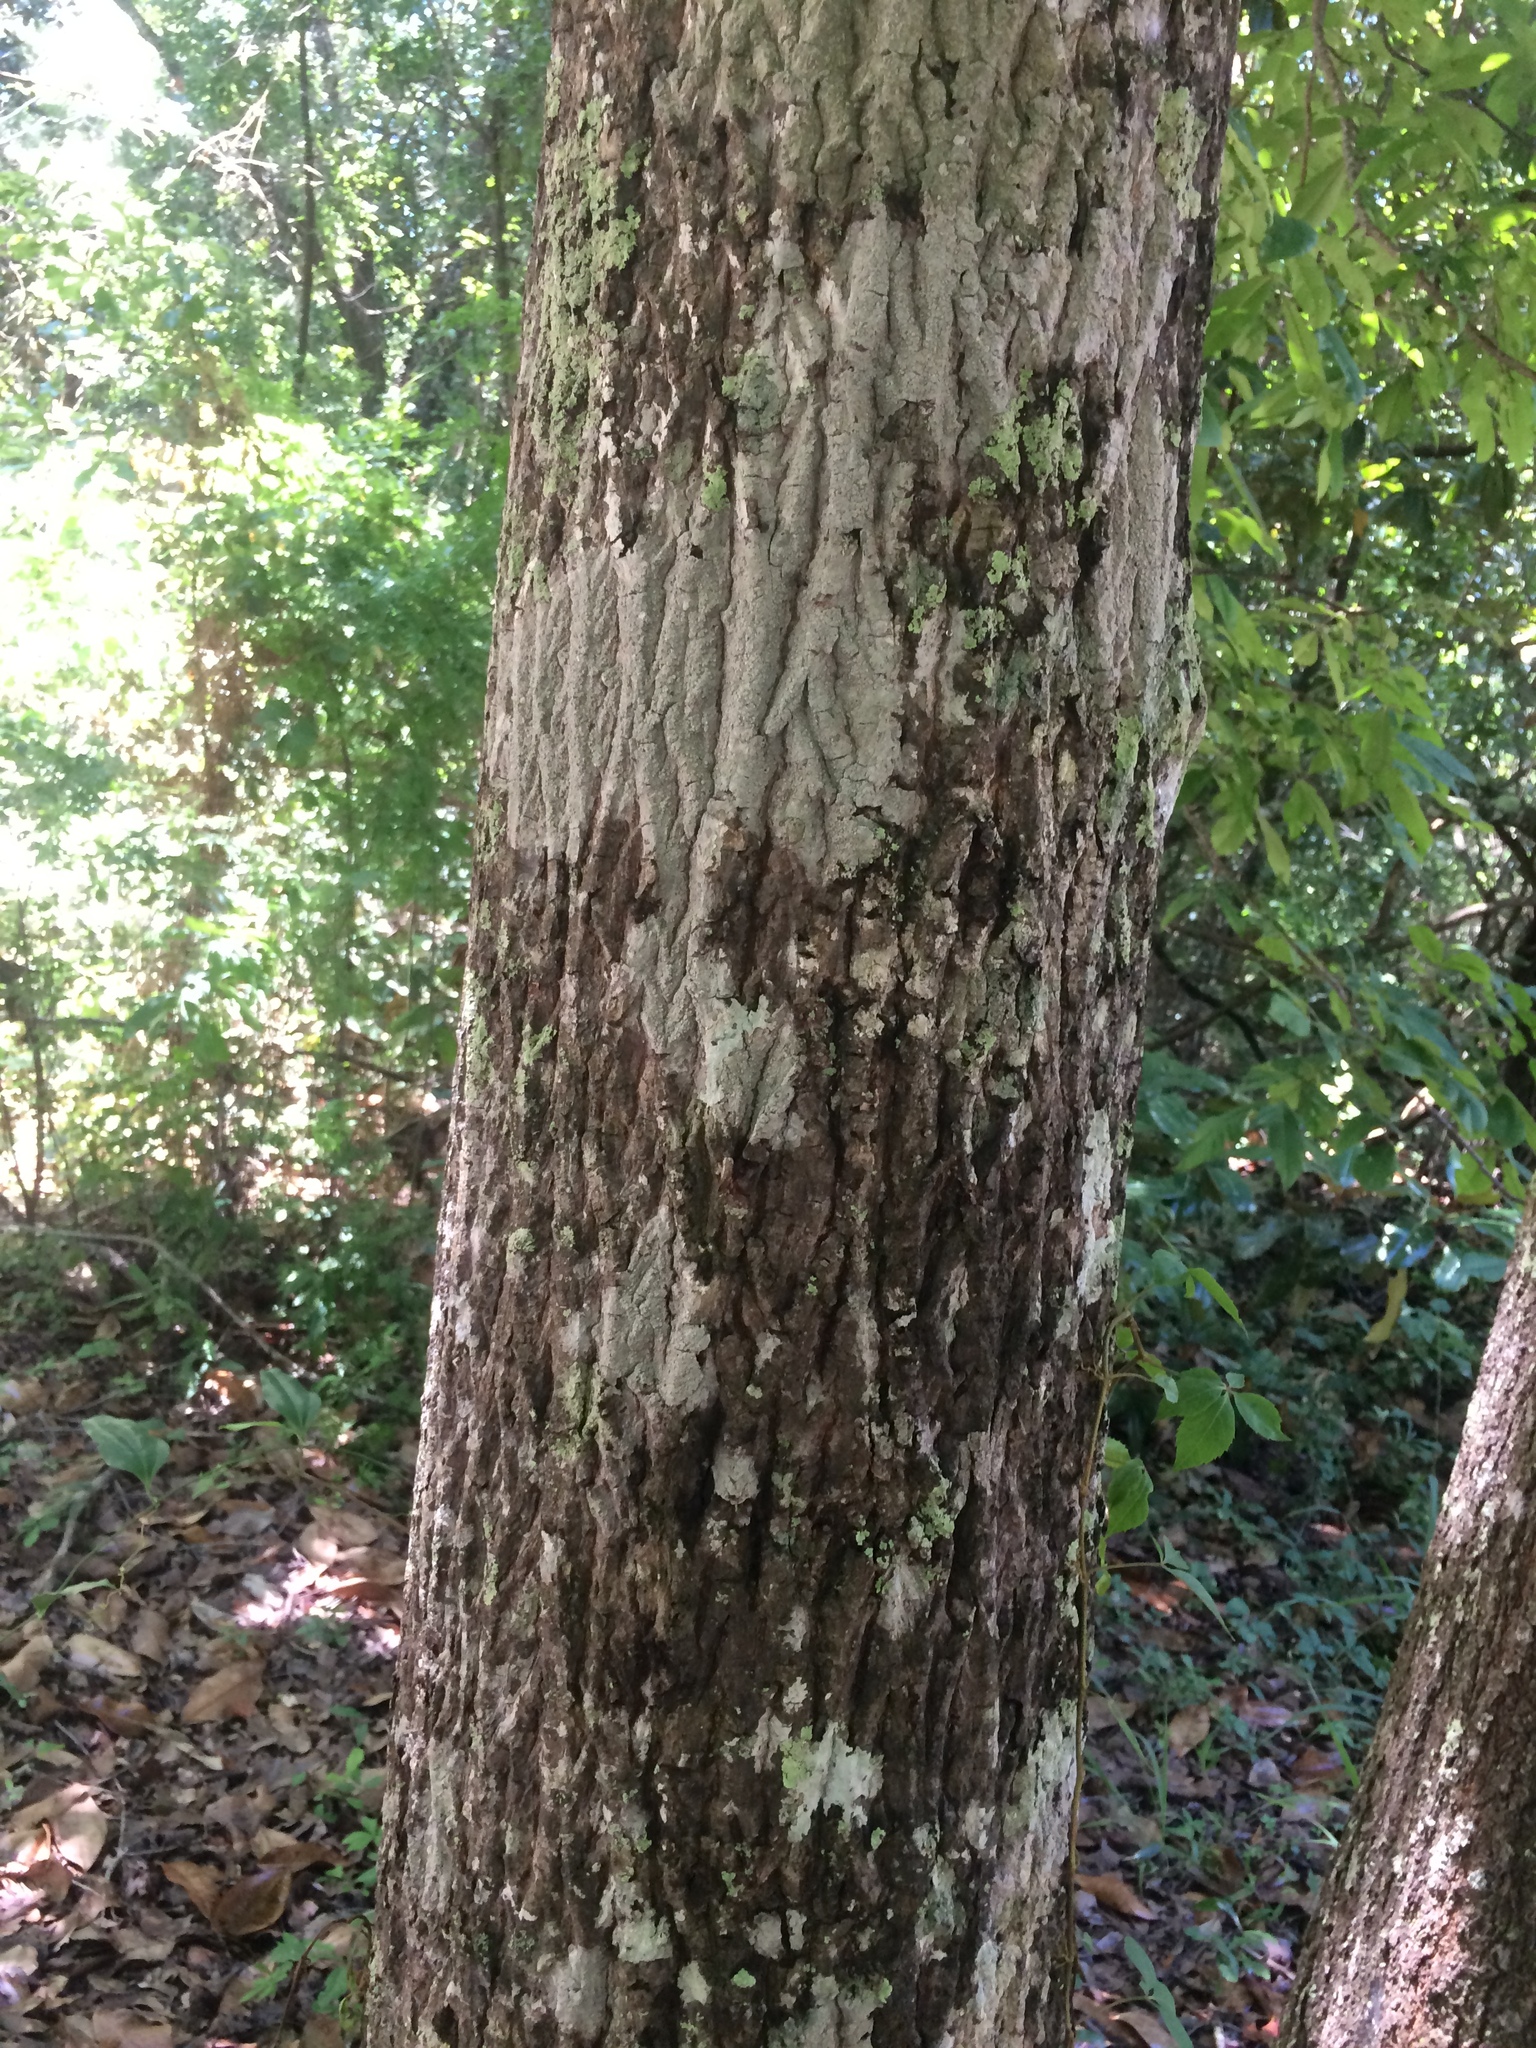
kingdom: Plantae
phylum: Tracheophyta
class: Magnoliopsida
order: Fagales
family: Juglandaceae
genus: Carya
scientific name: Carya alba
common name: Mockernut hickory
